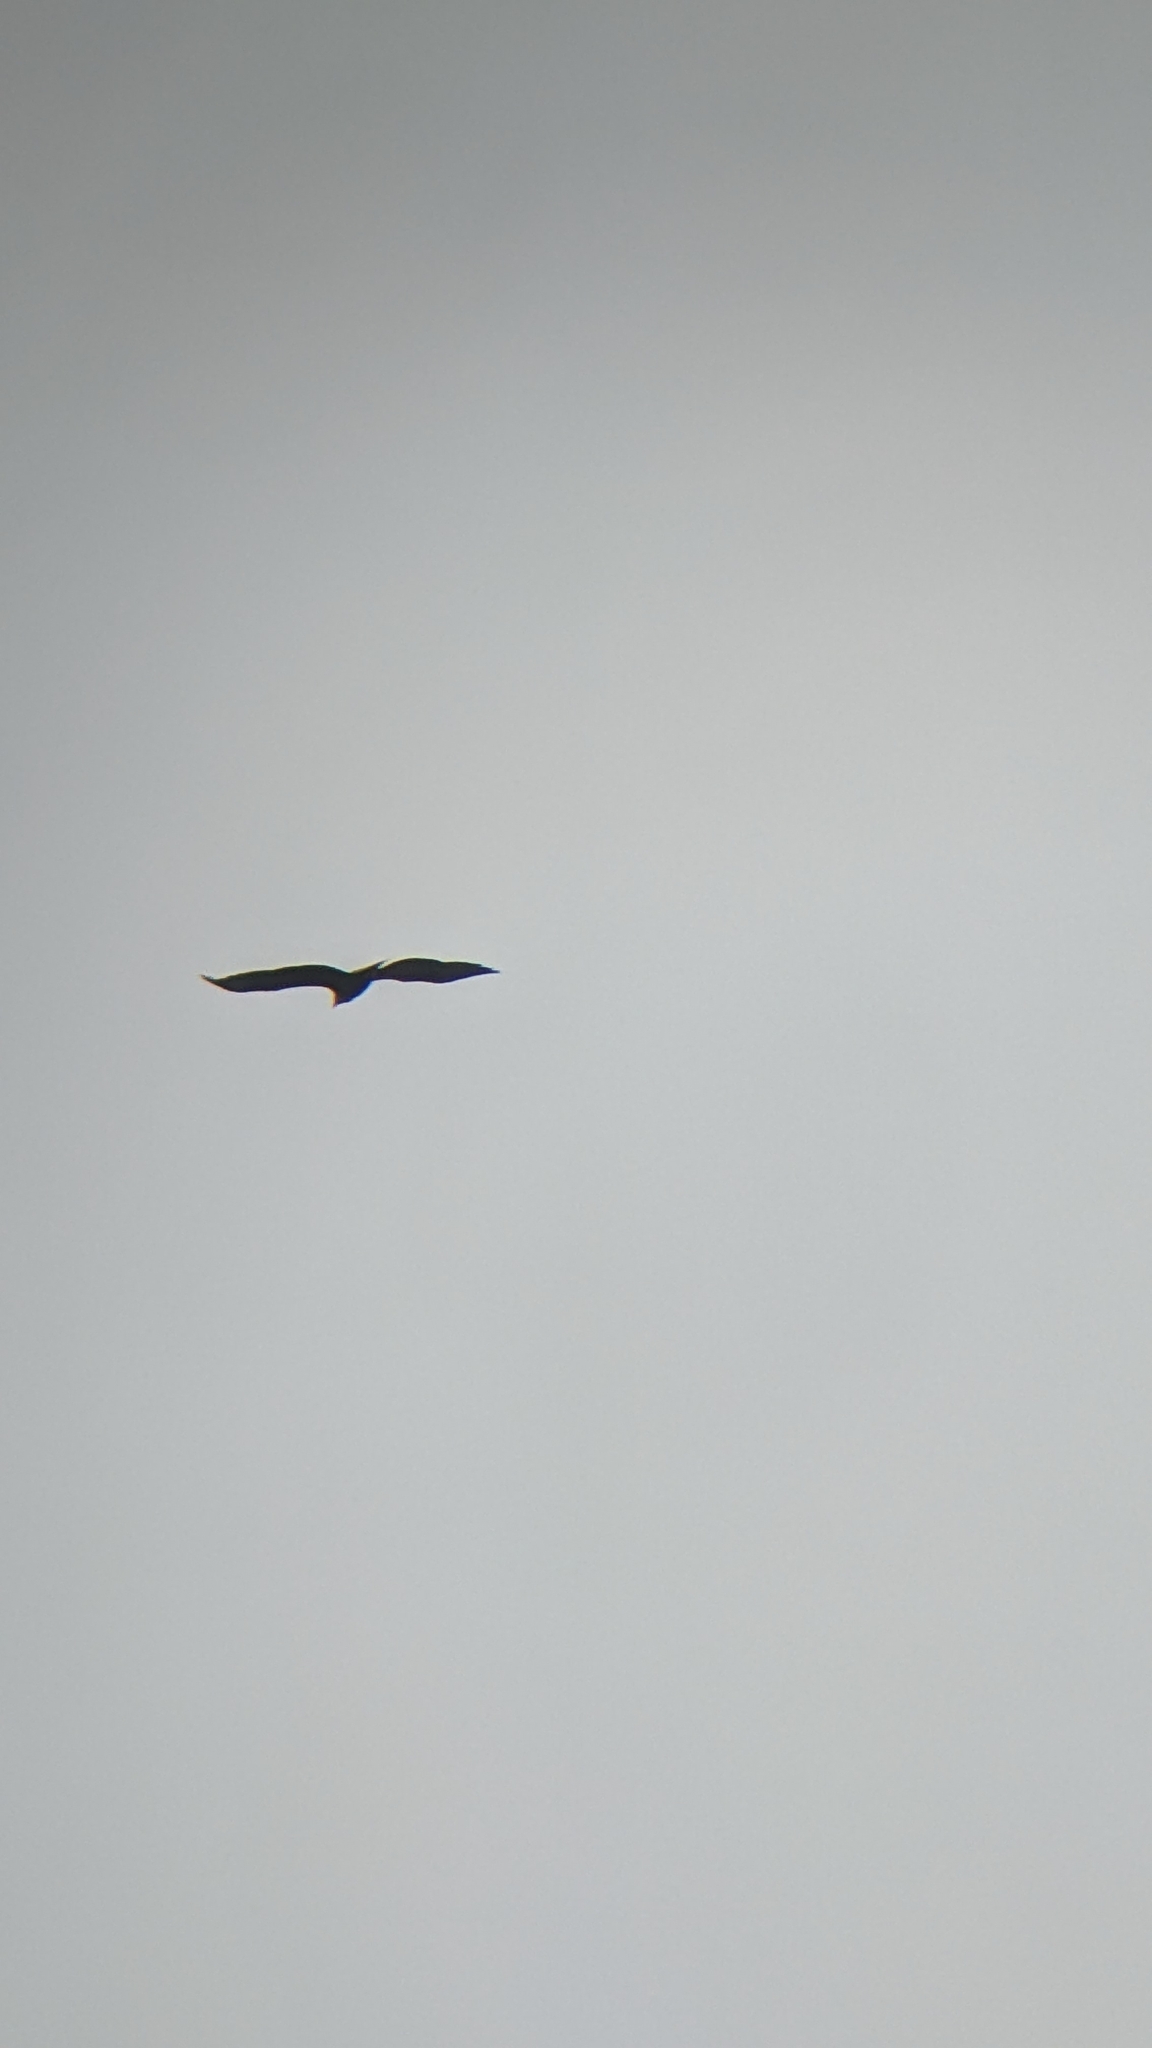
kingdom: Animalia
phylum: Chordata
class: Aves
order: Accipitriformes
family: Accipitridae
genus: Haliaeetus
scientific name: Haliaeetus albicilla
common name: White-tailed eagle
